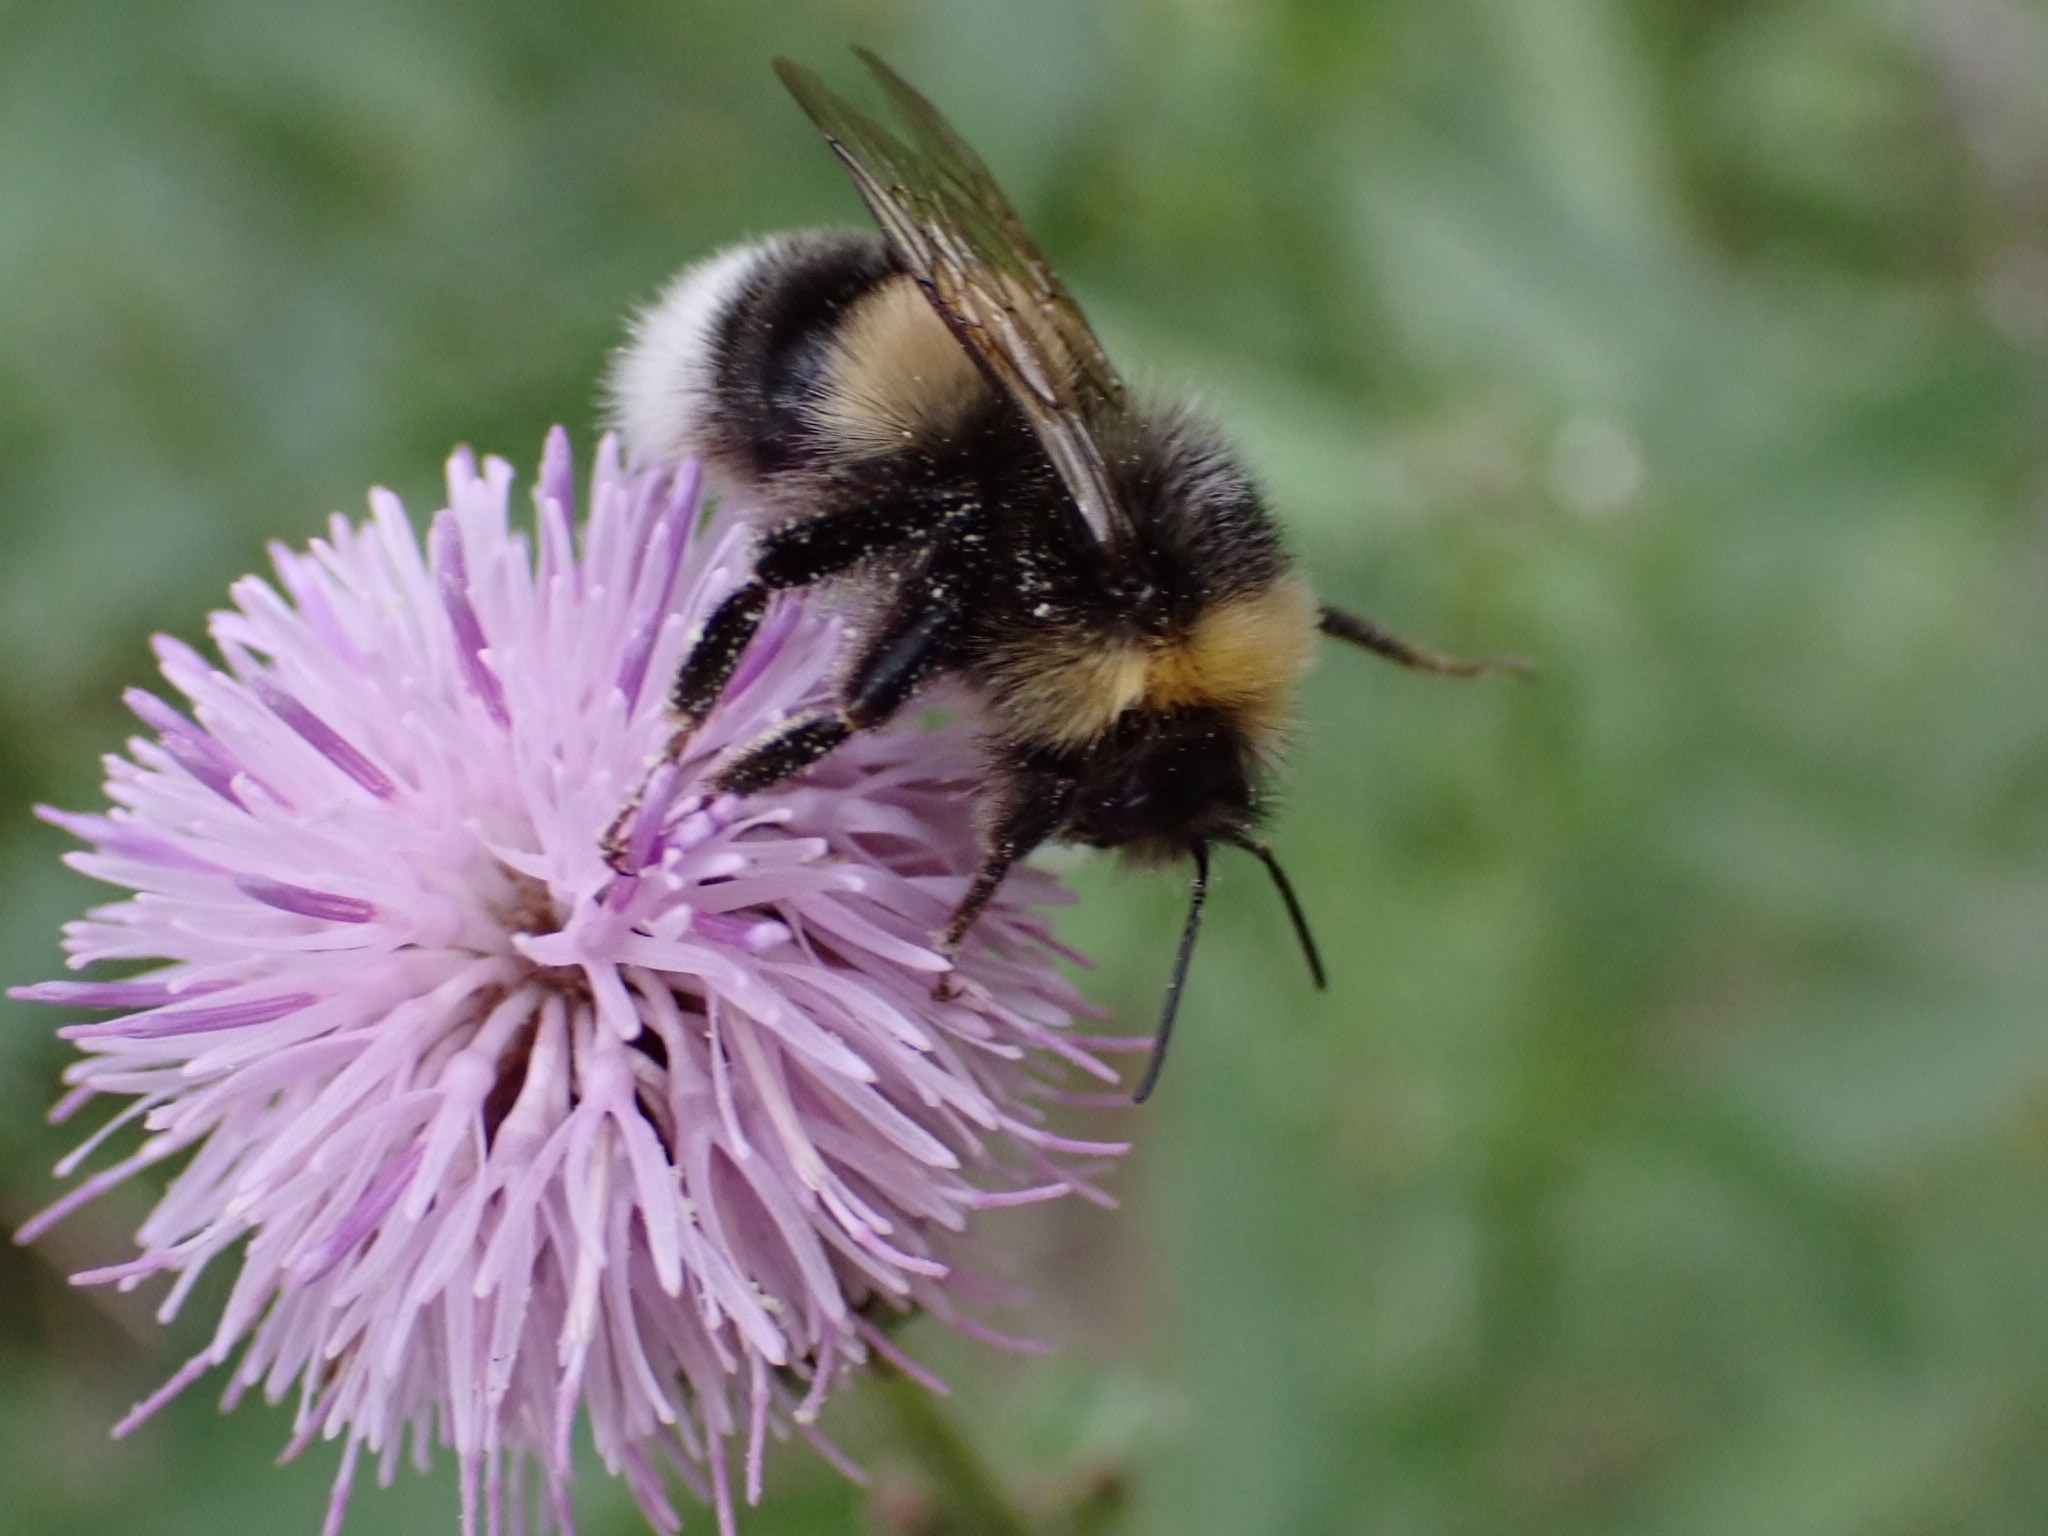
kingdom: Animalia
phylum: Arthropoda
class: Insecta
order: Hymenoptera
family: Apidae
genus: Bombus
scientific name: Bombus lucorum
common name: White-tailed bumblebee
